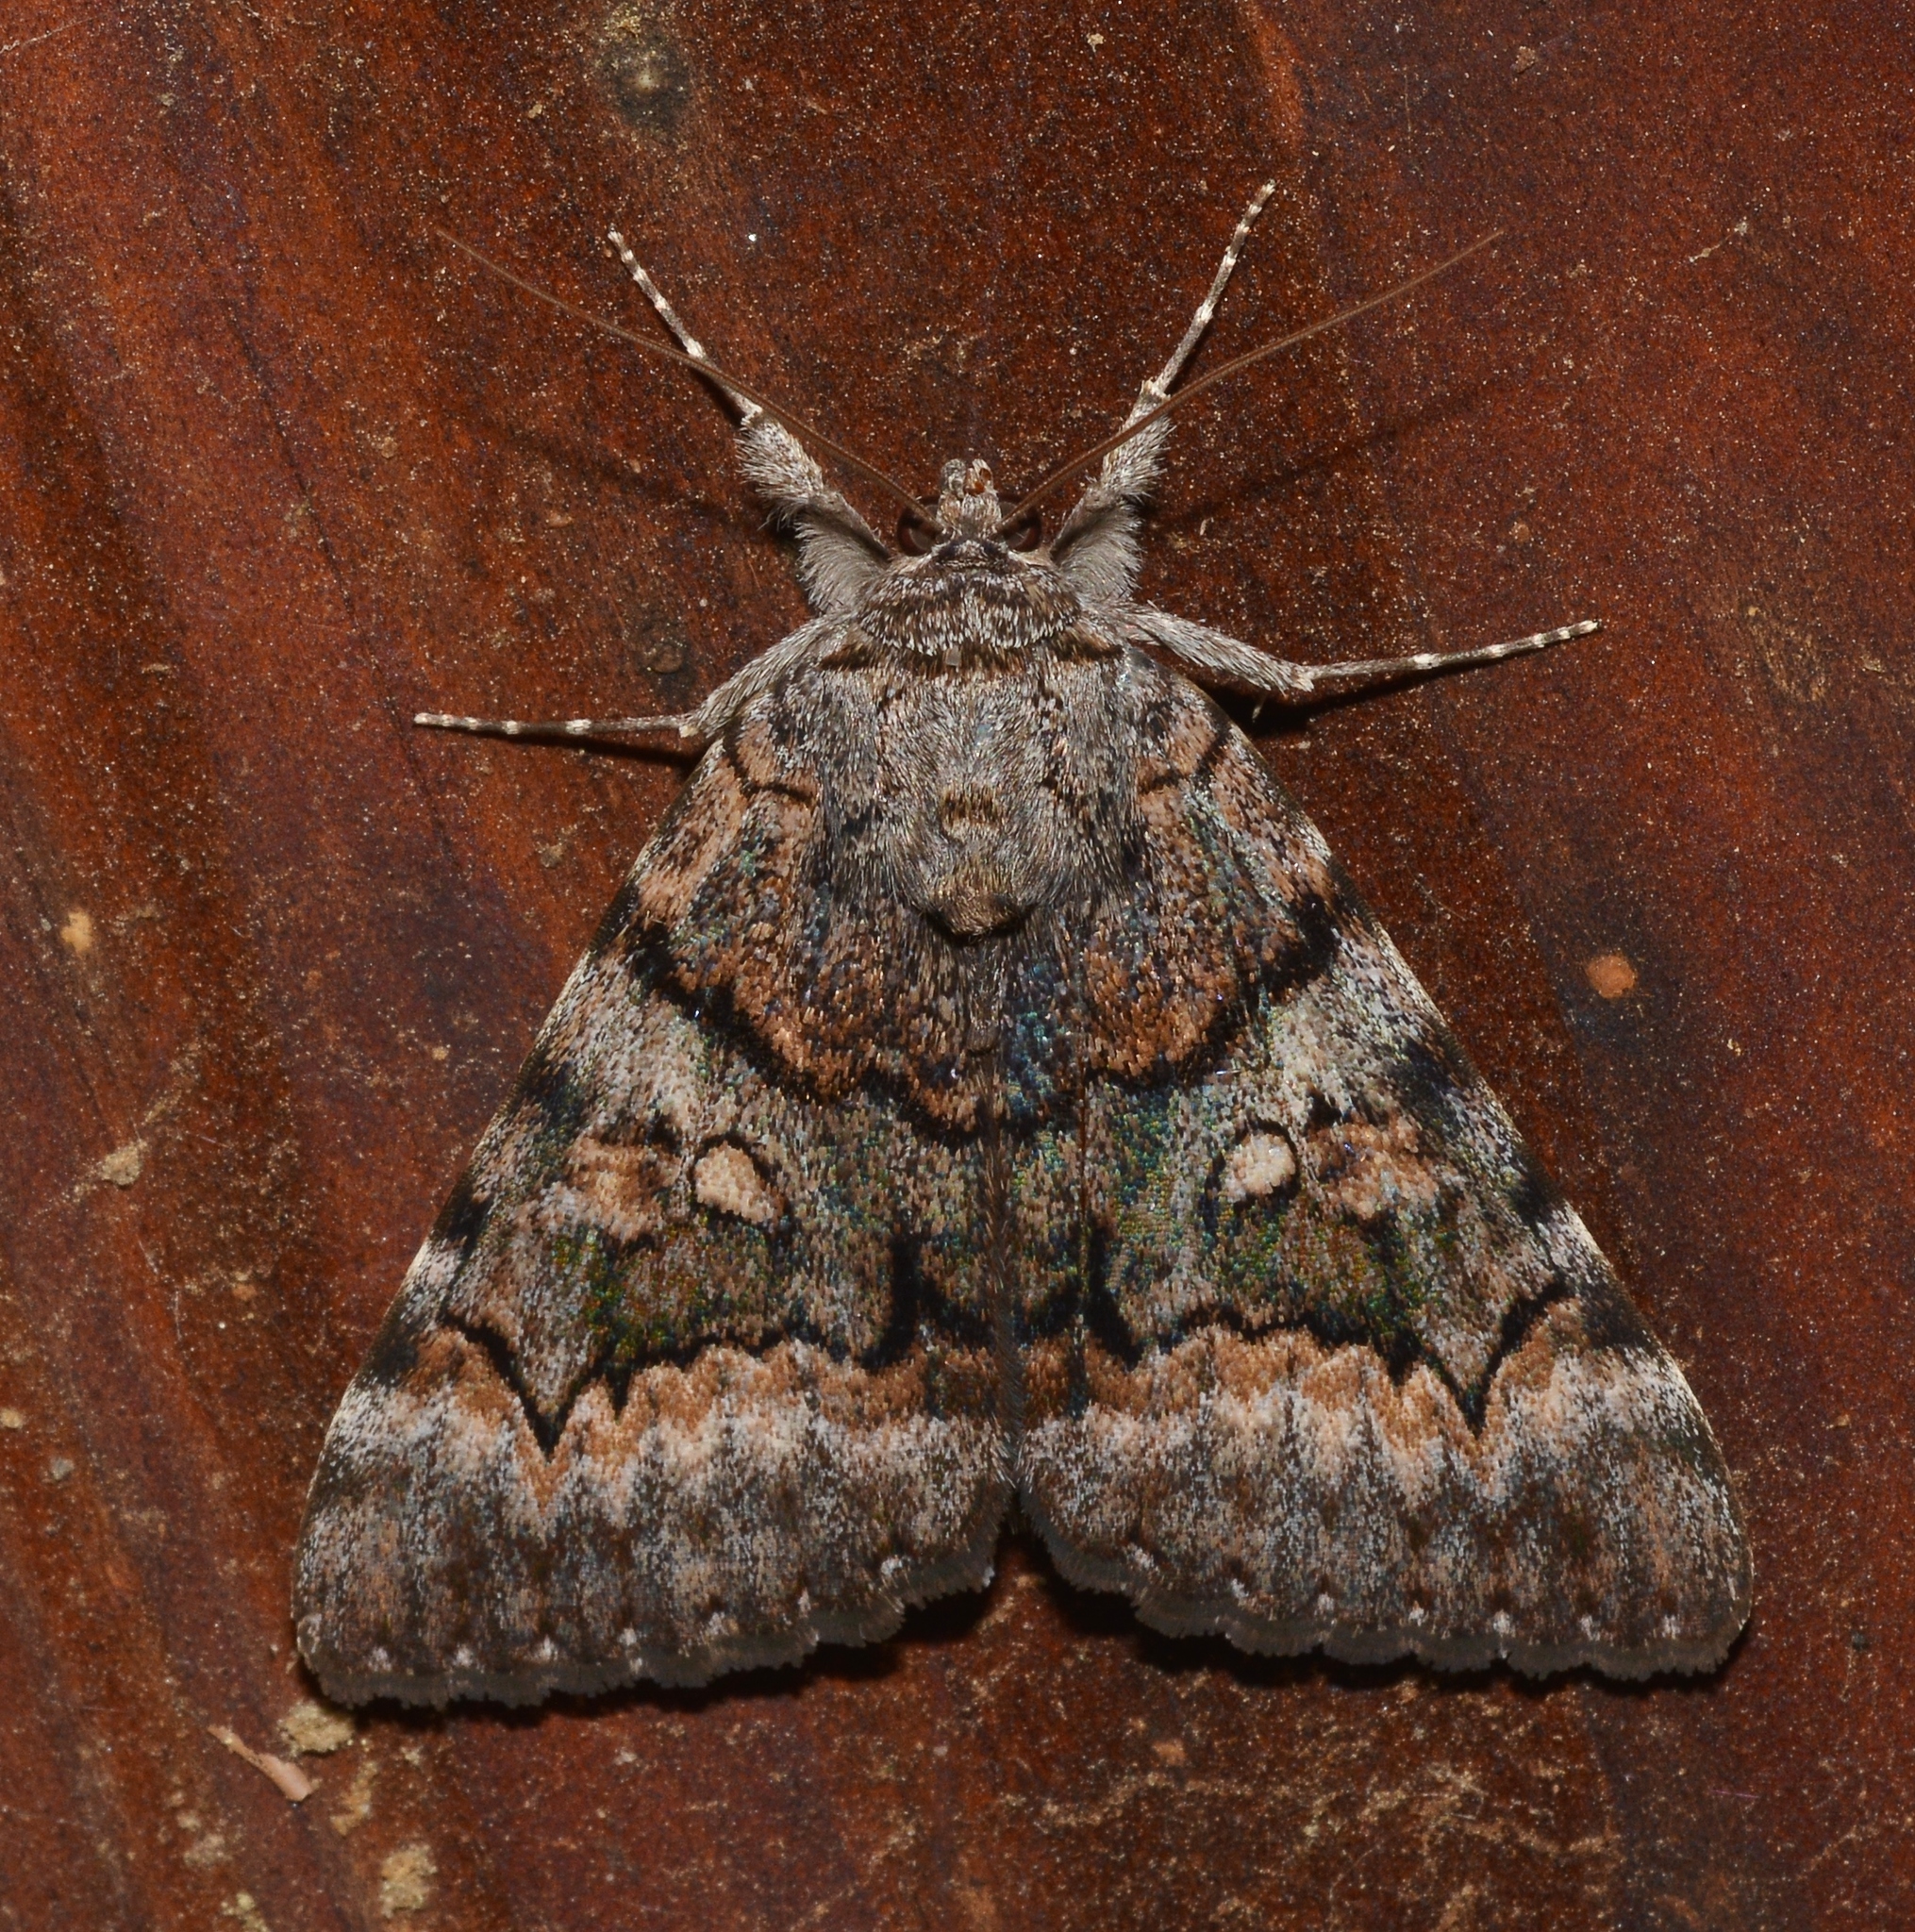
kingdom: Animalia
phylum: Arthropoda
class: Insecta
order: Lepidoptera
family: Erebidae
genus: Catocala
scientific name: Catocala epione
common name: Epione underwing
